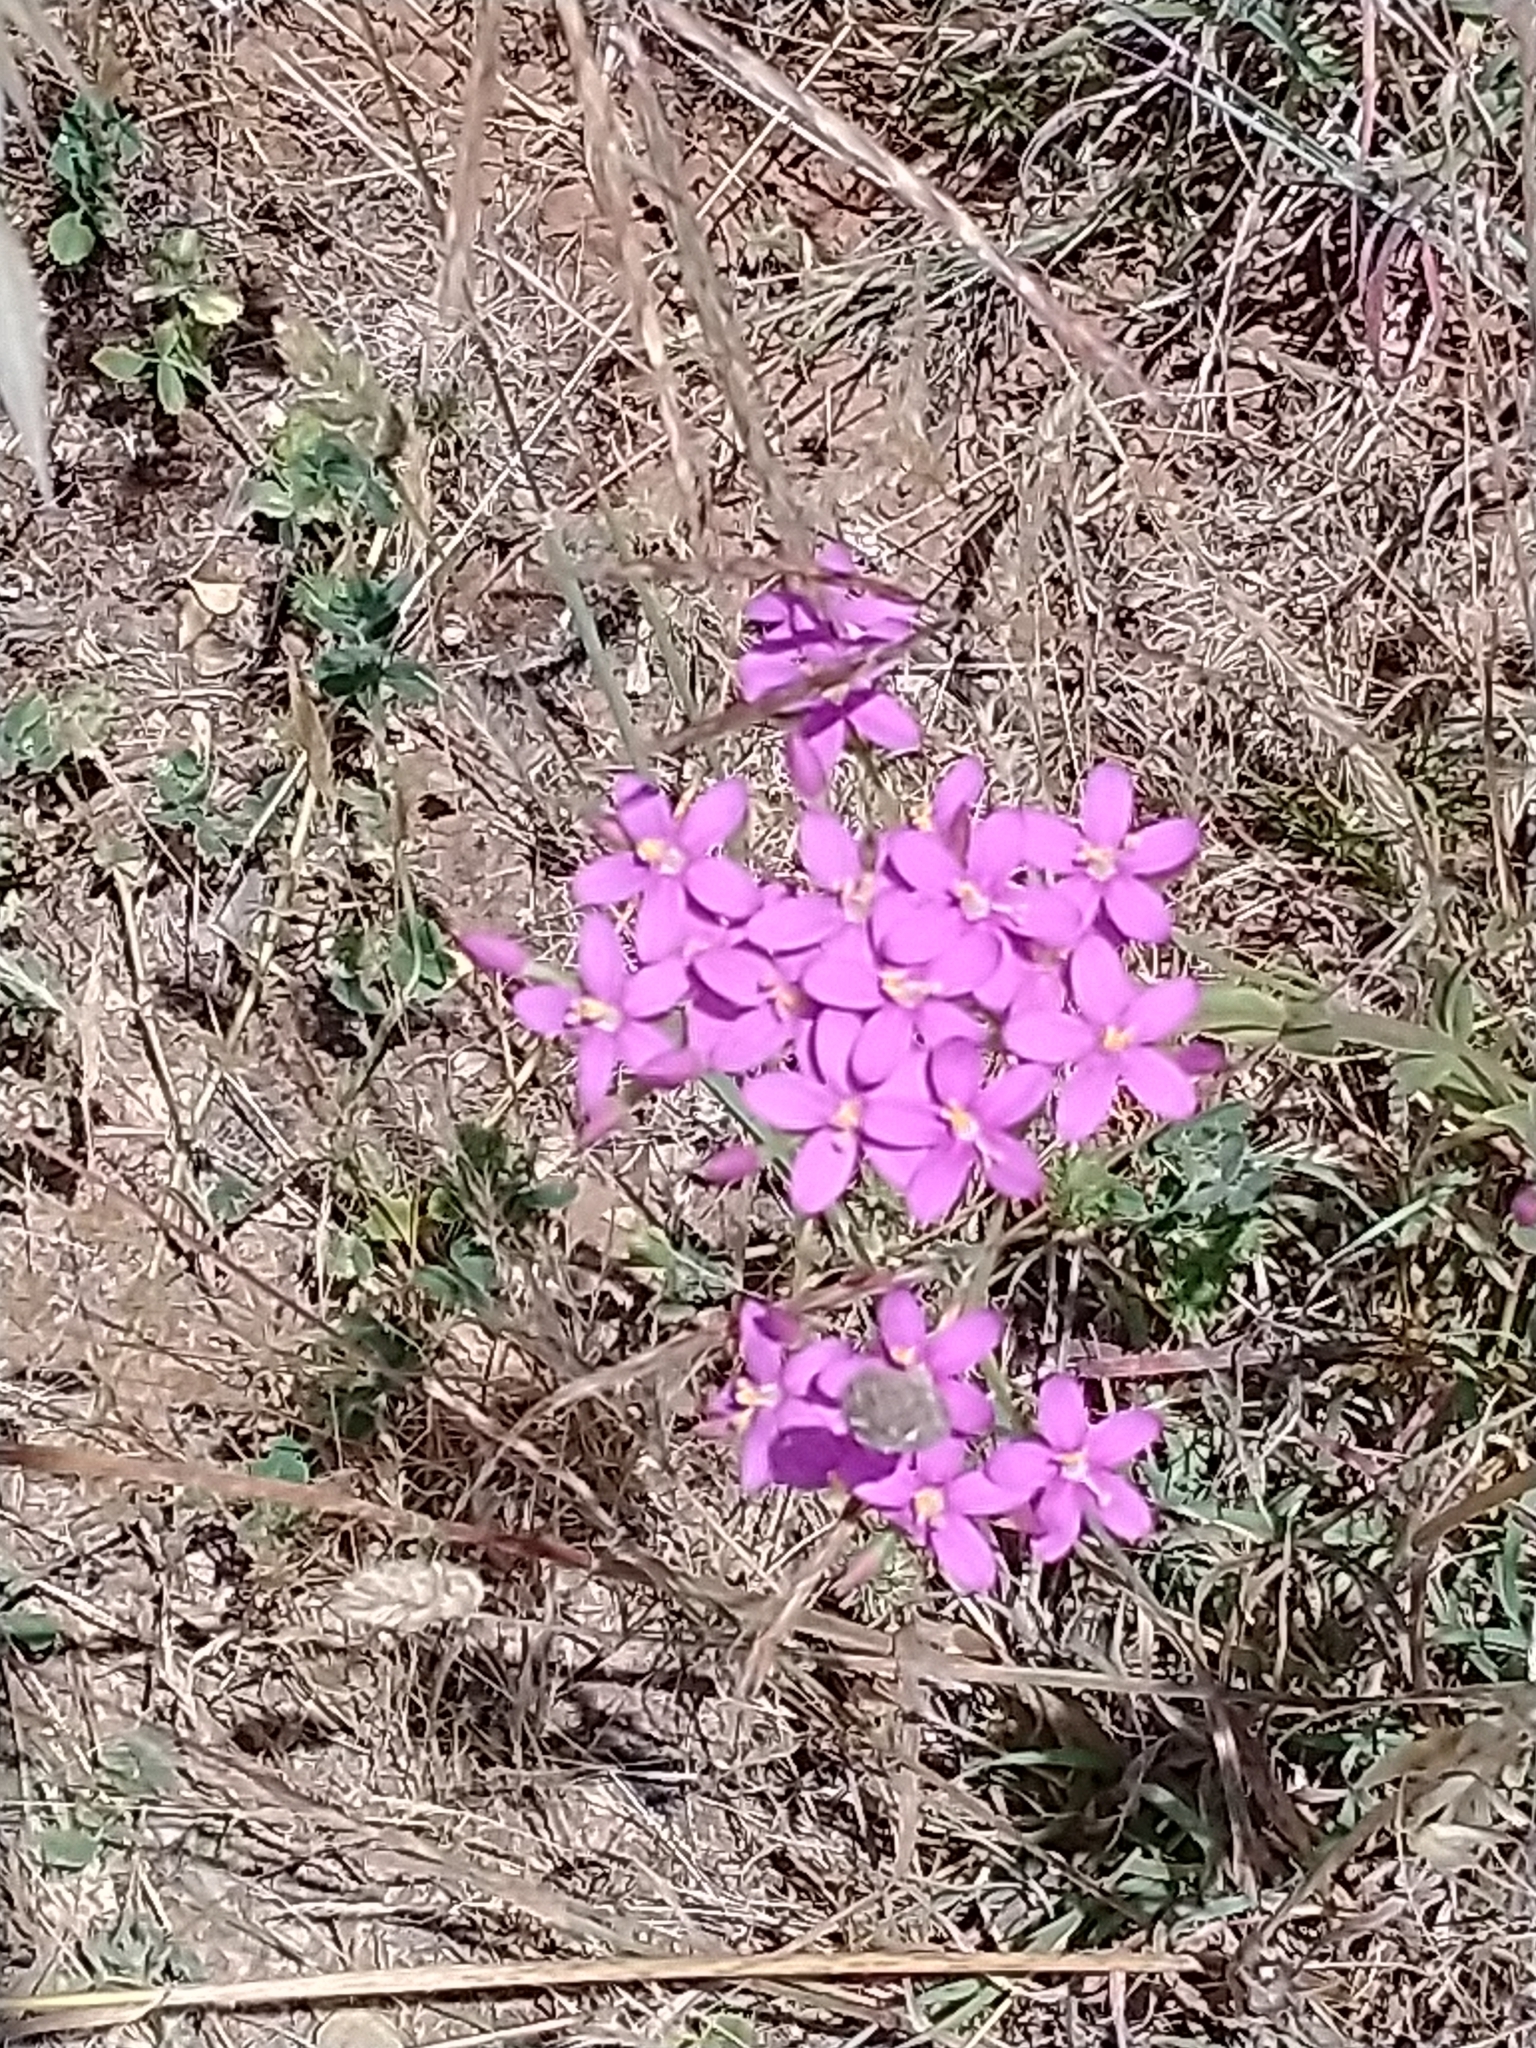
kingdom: Plantae
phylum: Tracheophyta
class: Magnoliopsida
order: Gentianales
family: Gentianaceae
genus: Centaurium
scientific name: Centaurium erythraea
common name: Common centaury
